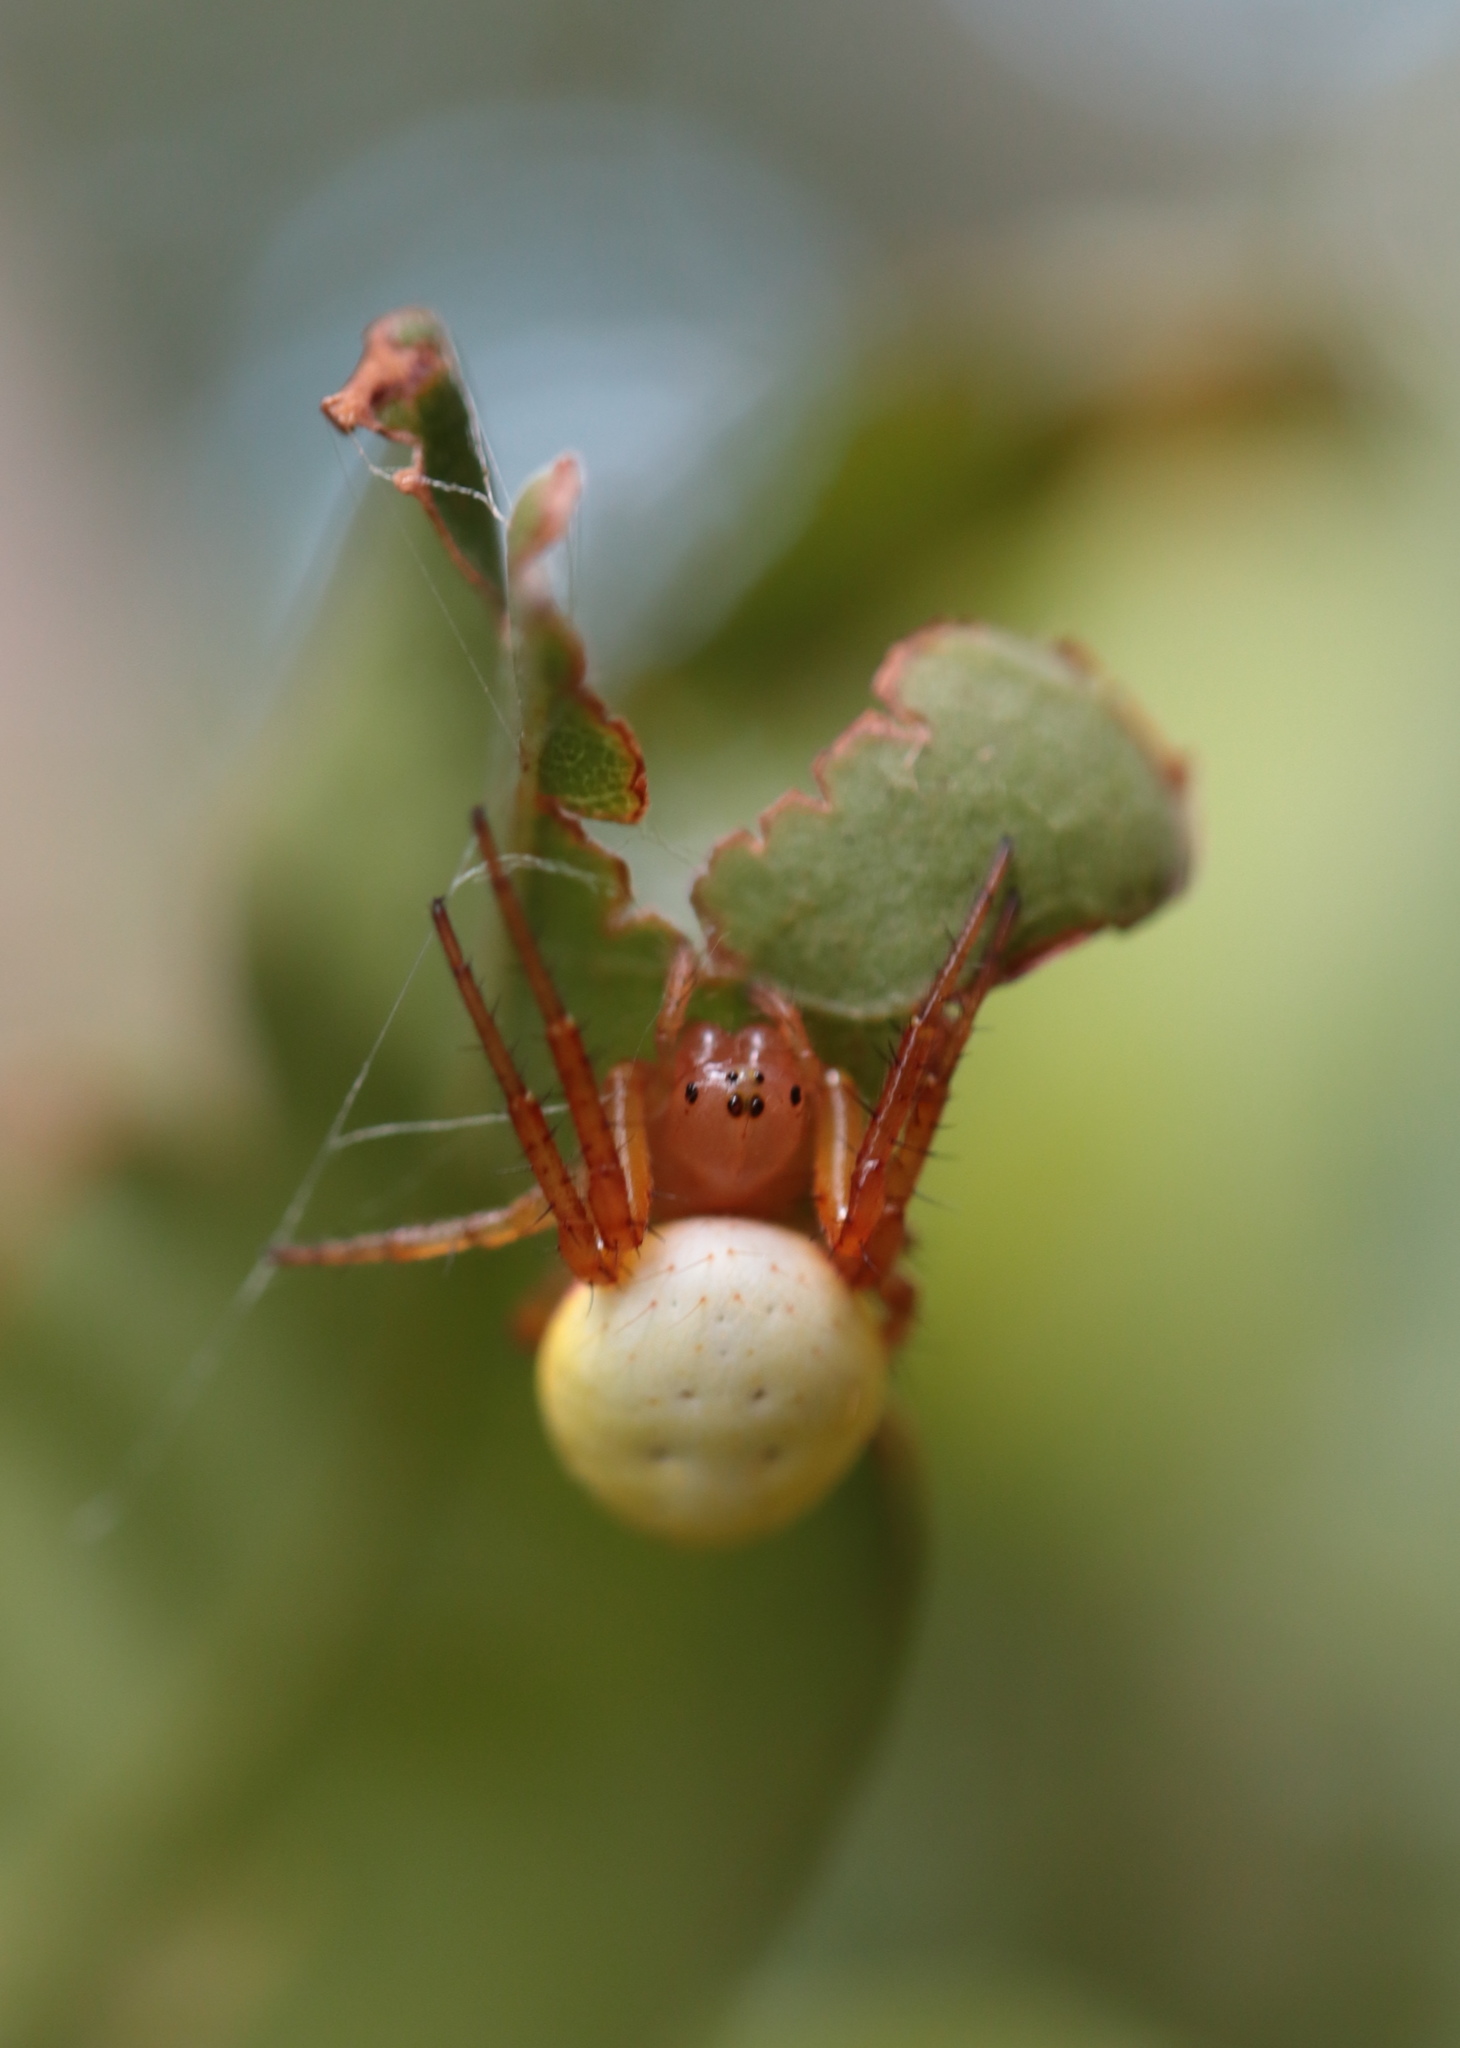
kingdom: Animalia
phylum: Arthropoda
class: Arachnida
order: Araneae
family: Araneidae
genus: Araniella
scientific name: Araniella displicata
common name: Sixspotted orb weaver
